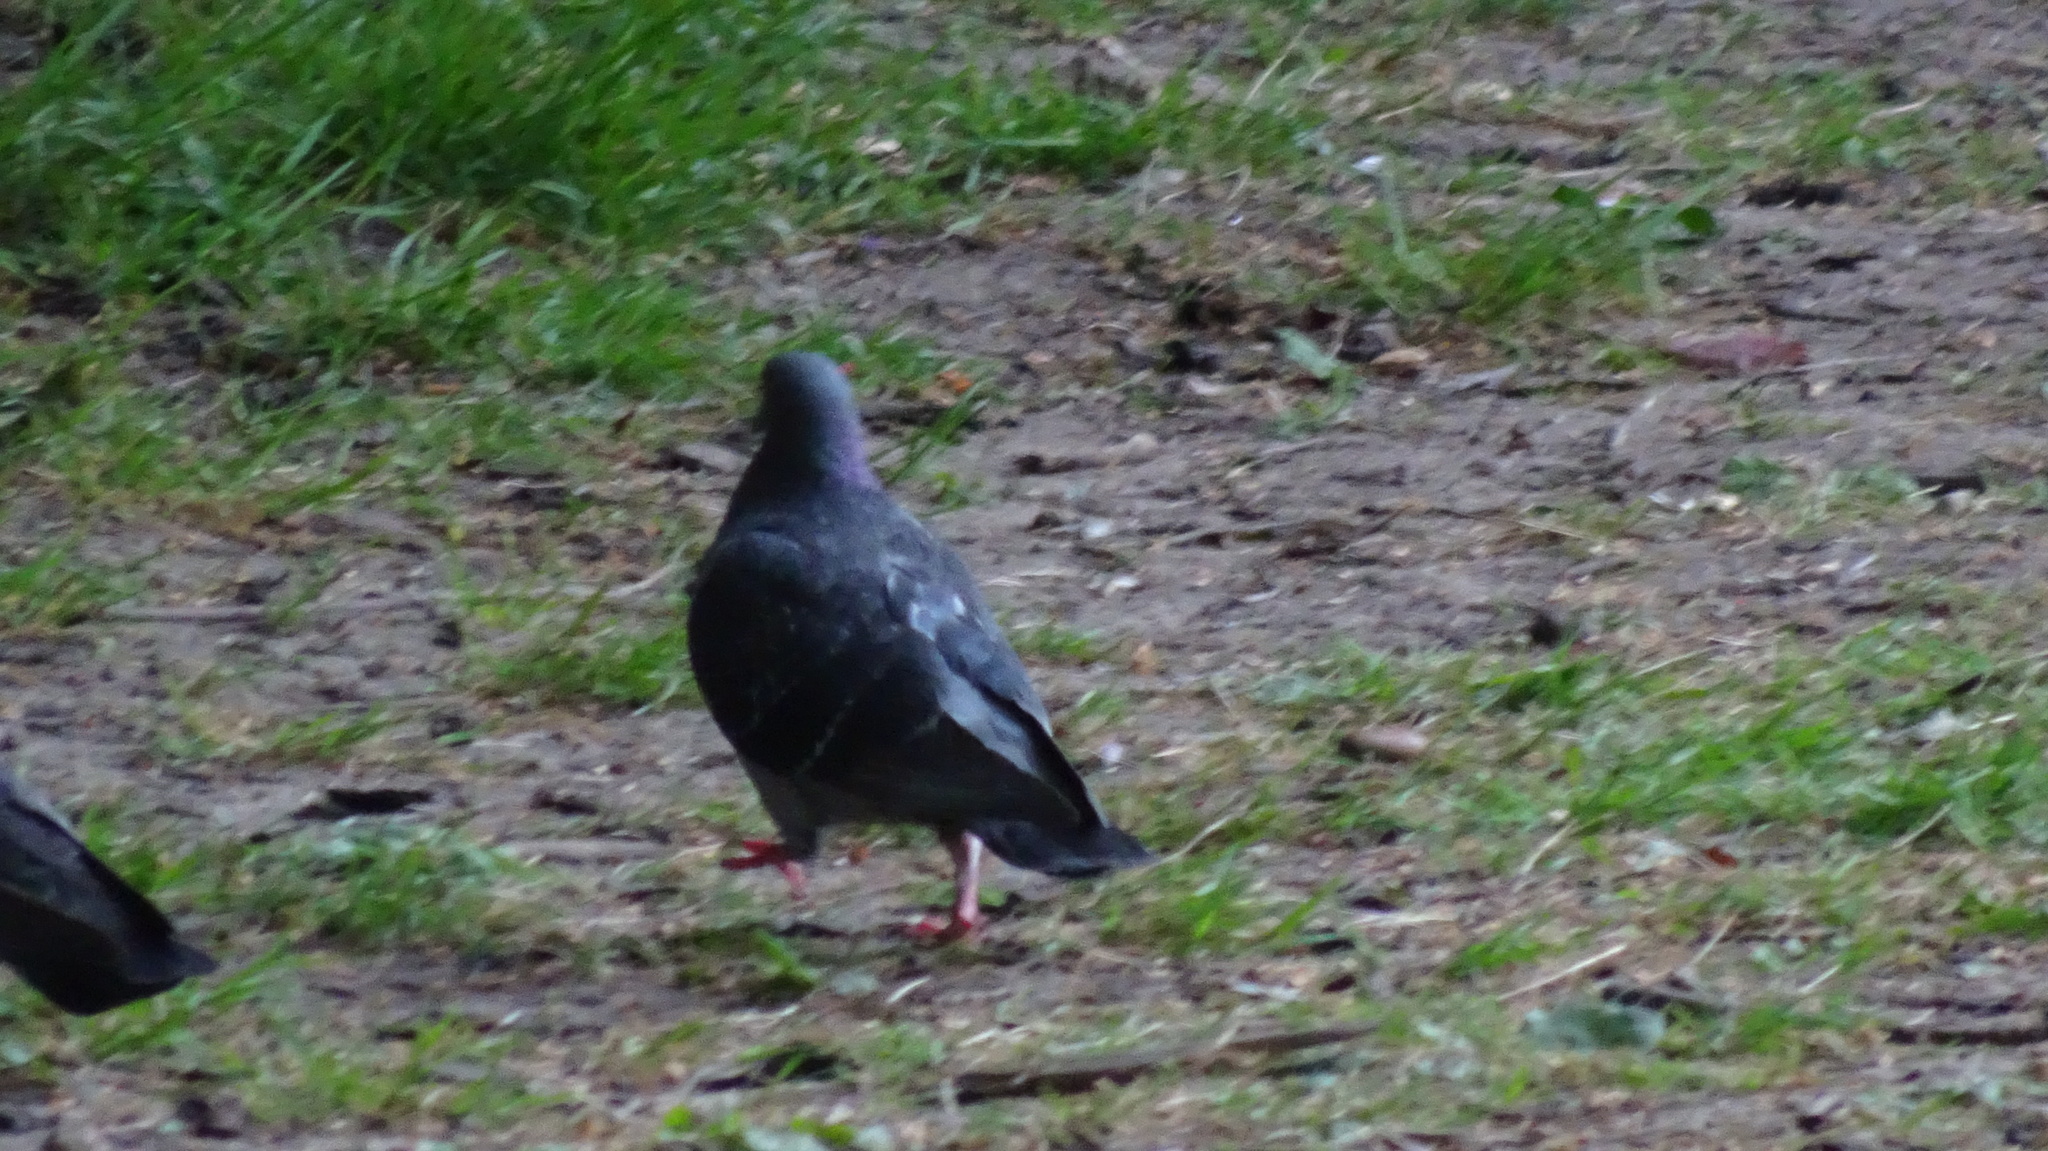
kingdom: Animalia
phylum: Chordata
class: Aves
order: Columbiformes
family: Columbidae
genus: Columba
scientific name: Columba livia
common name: Rock pigeon
